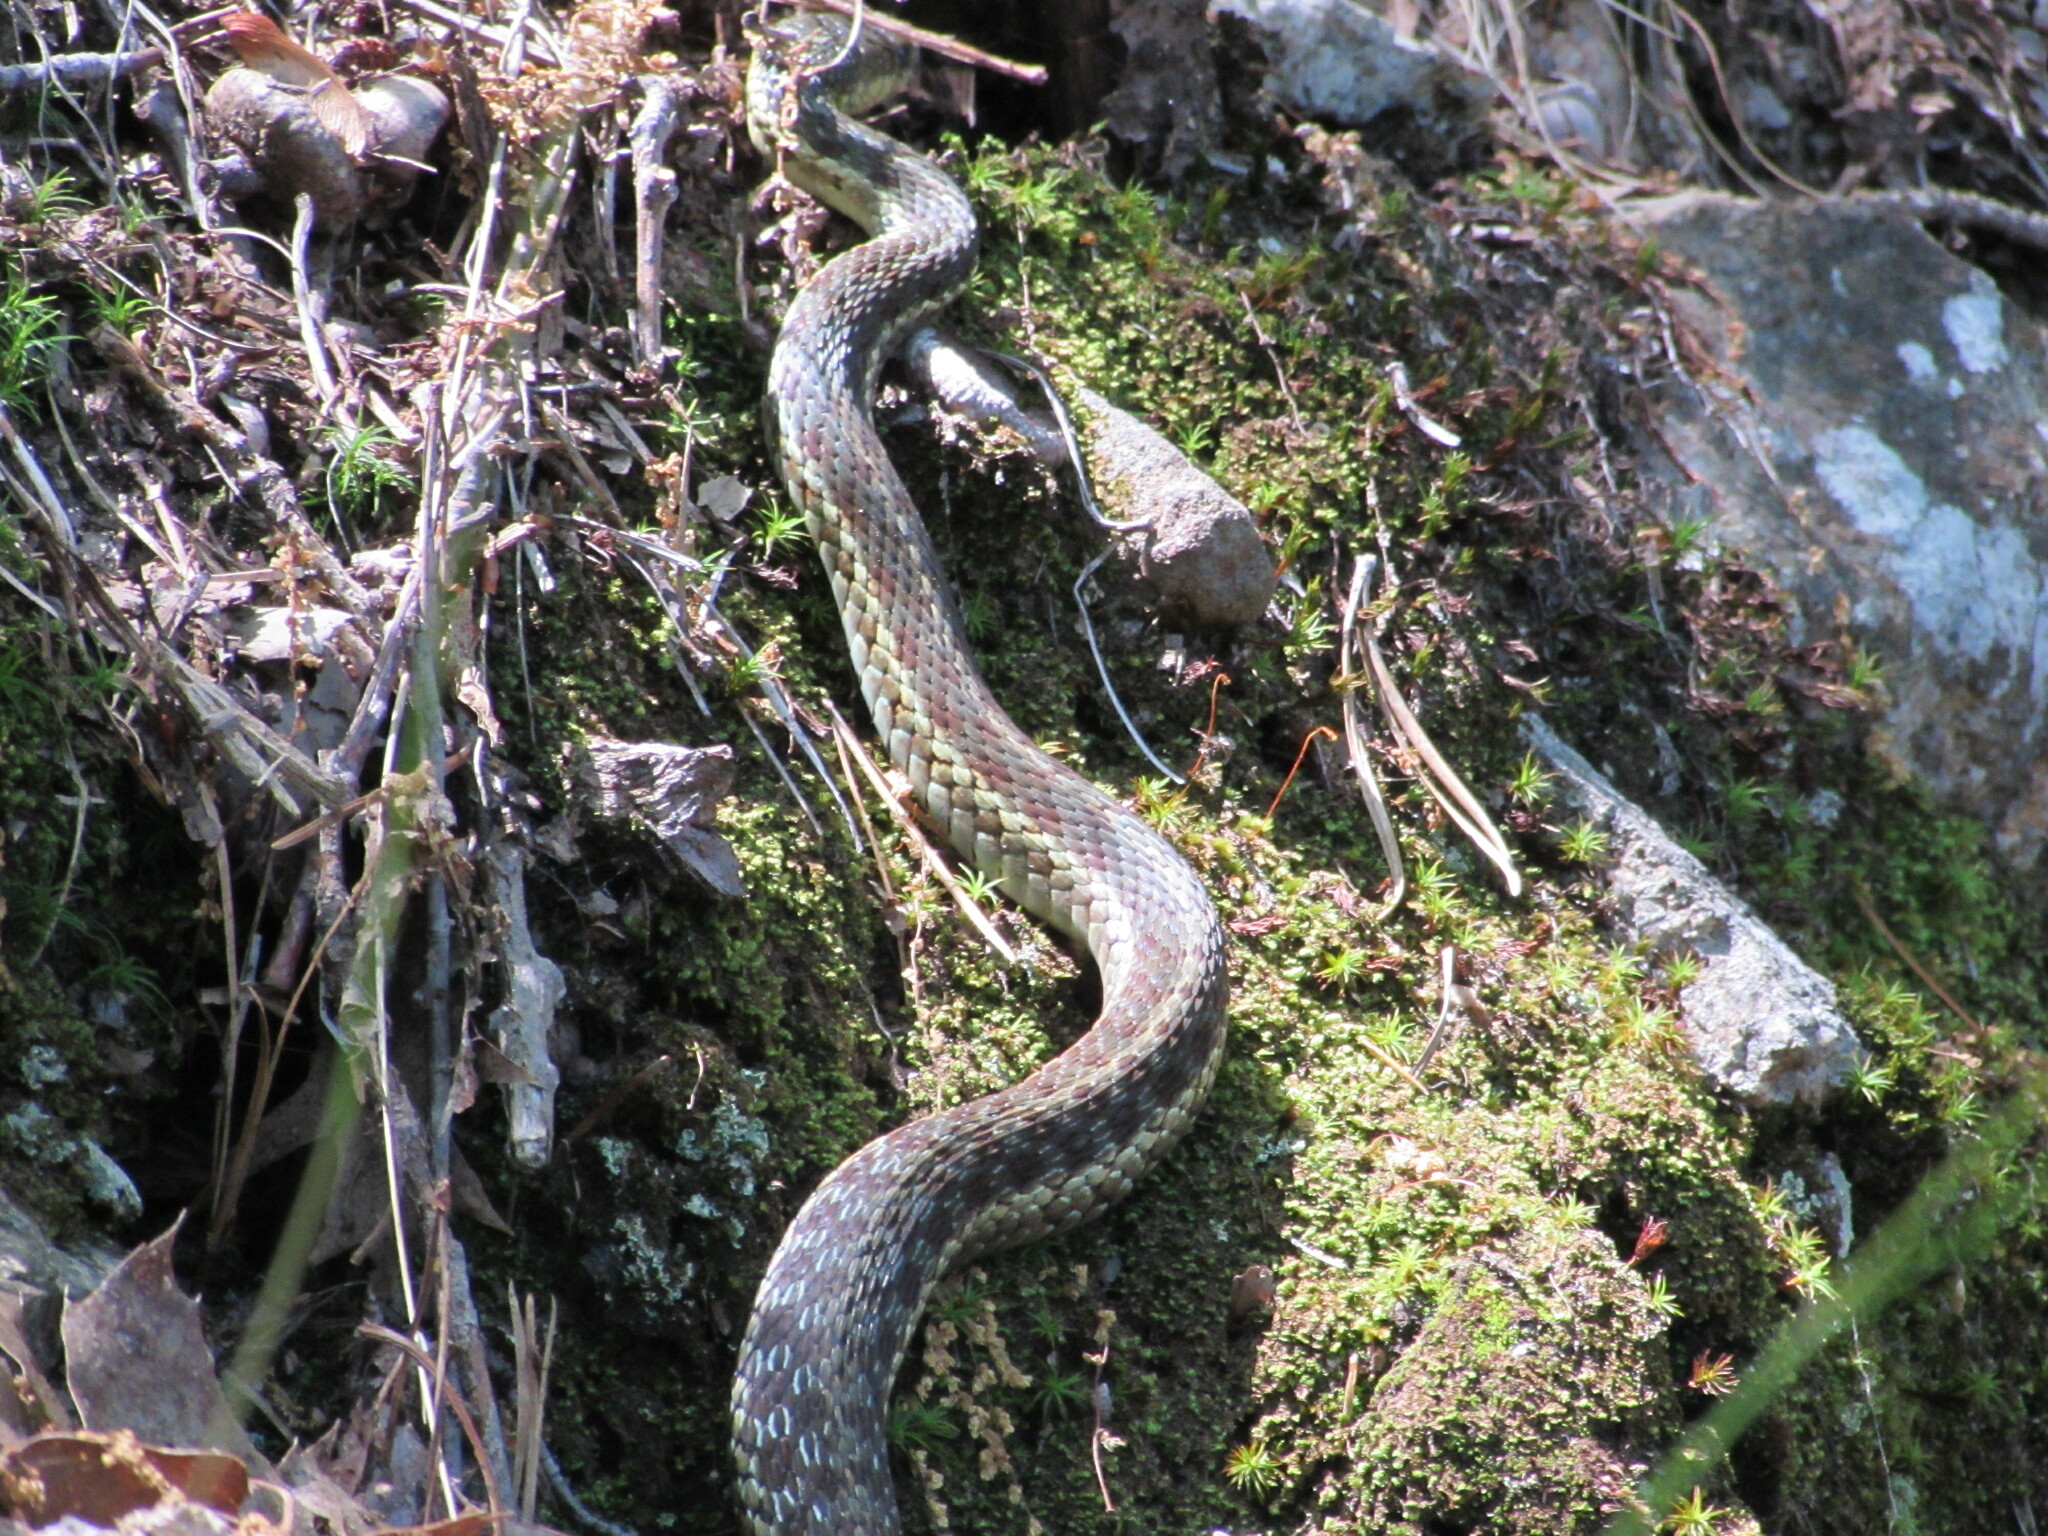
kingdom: Animalia
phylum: Chordata
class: Squamata
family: Colubridae
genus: Thamnophis
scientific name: Thamnophis sirtalis
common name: Common garter snake
